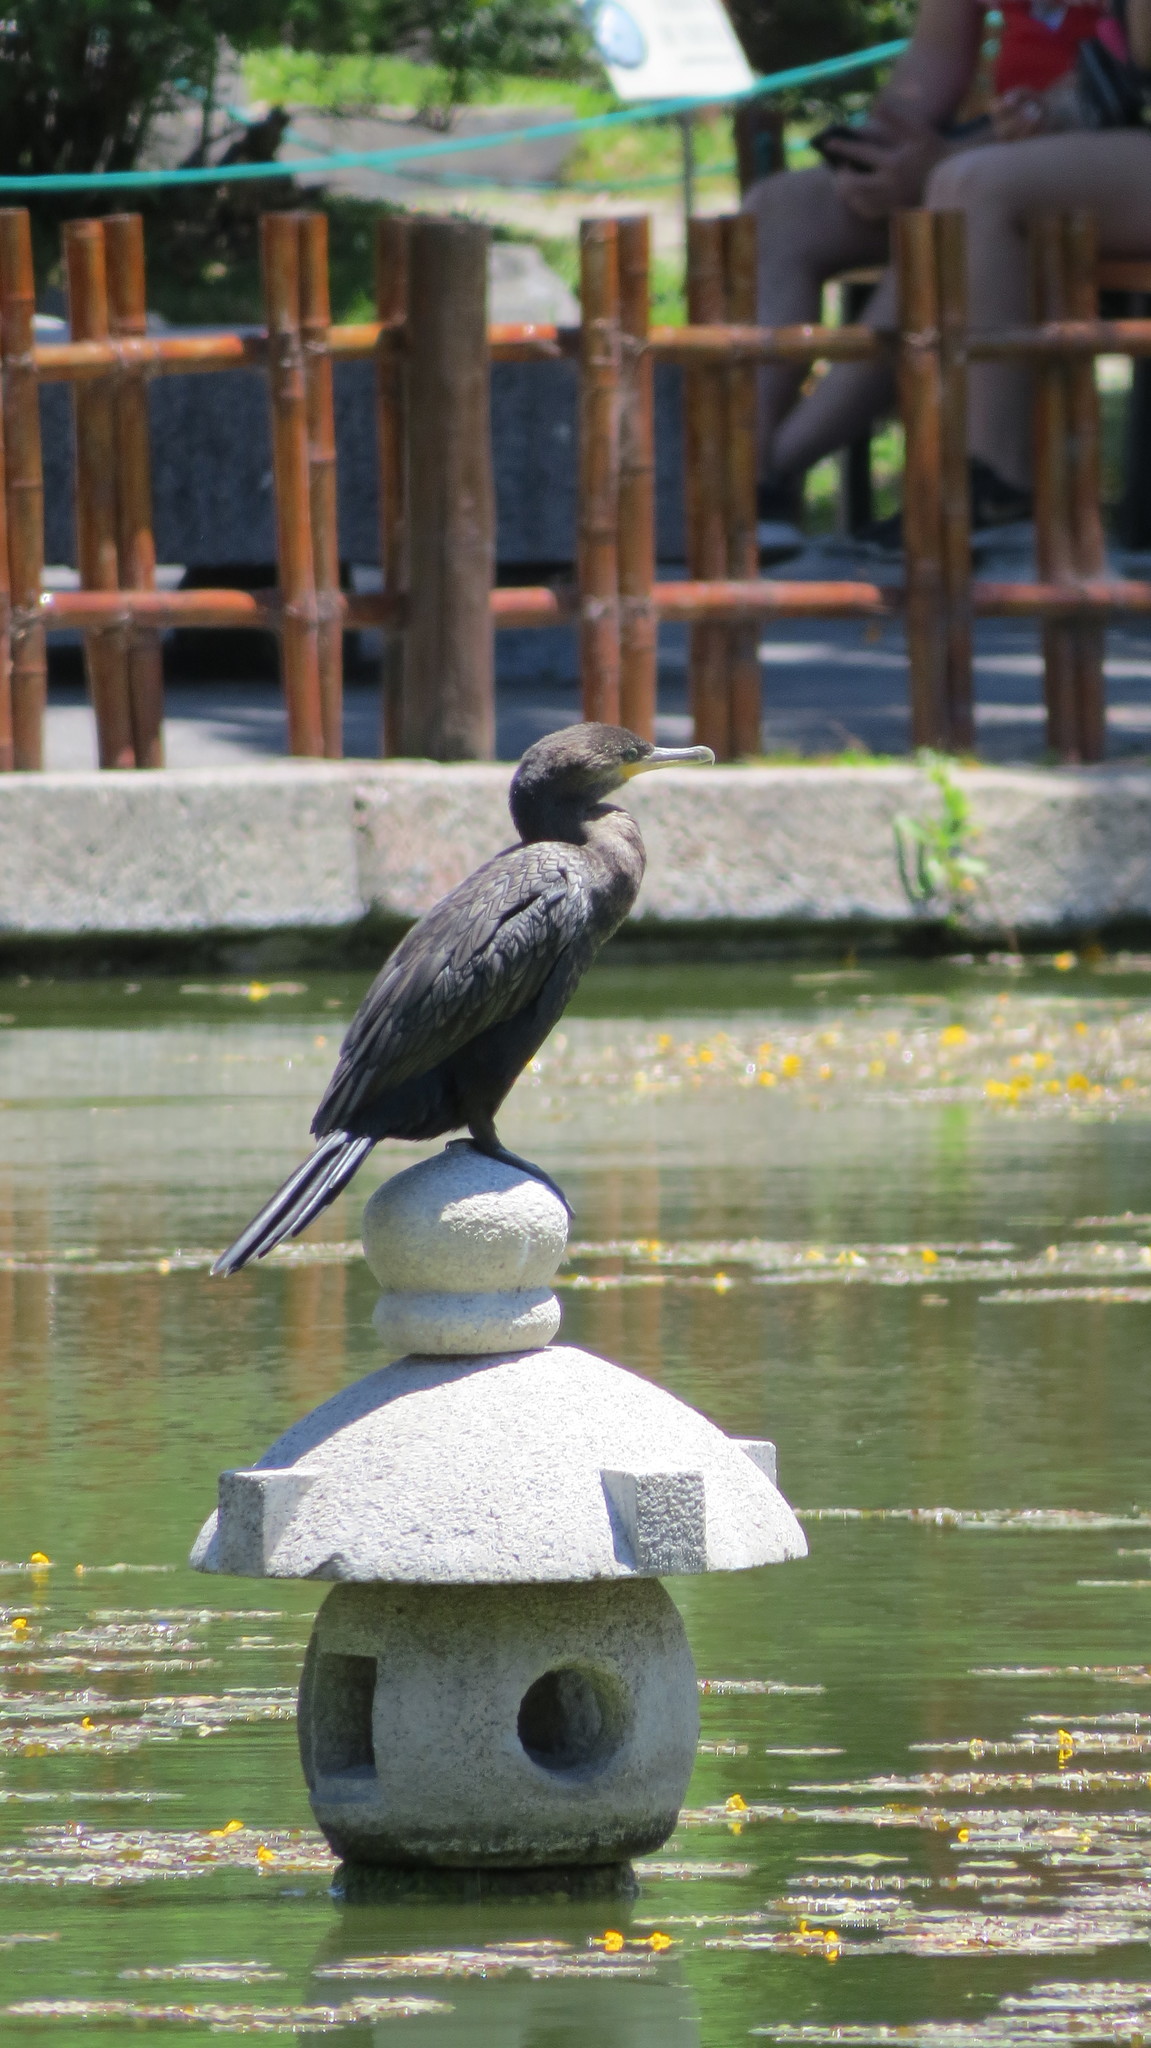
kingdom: Animalia
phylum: Chordata
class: Aves
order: Suliformes
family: Phalacrocoracidae
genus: Phalacrocorax
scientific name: Phalacrocorax brasilianus
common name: Neotropic cormorant
